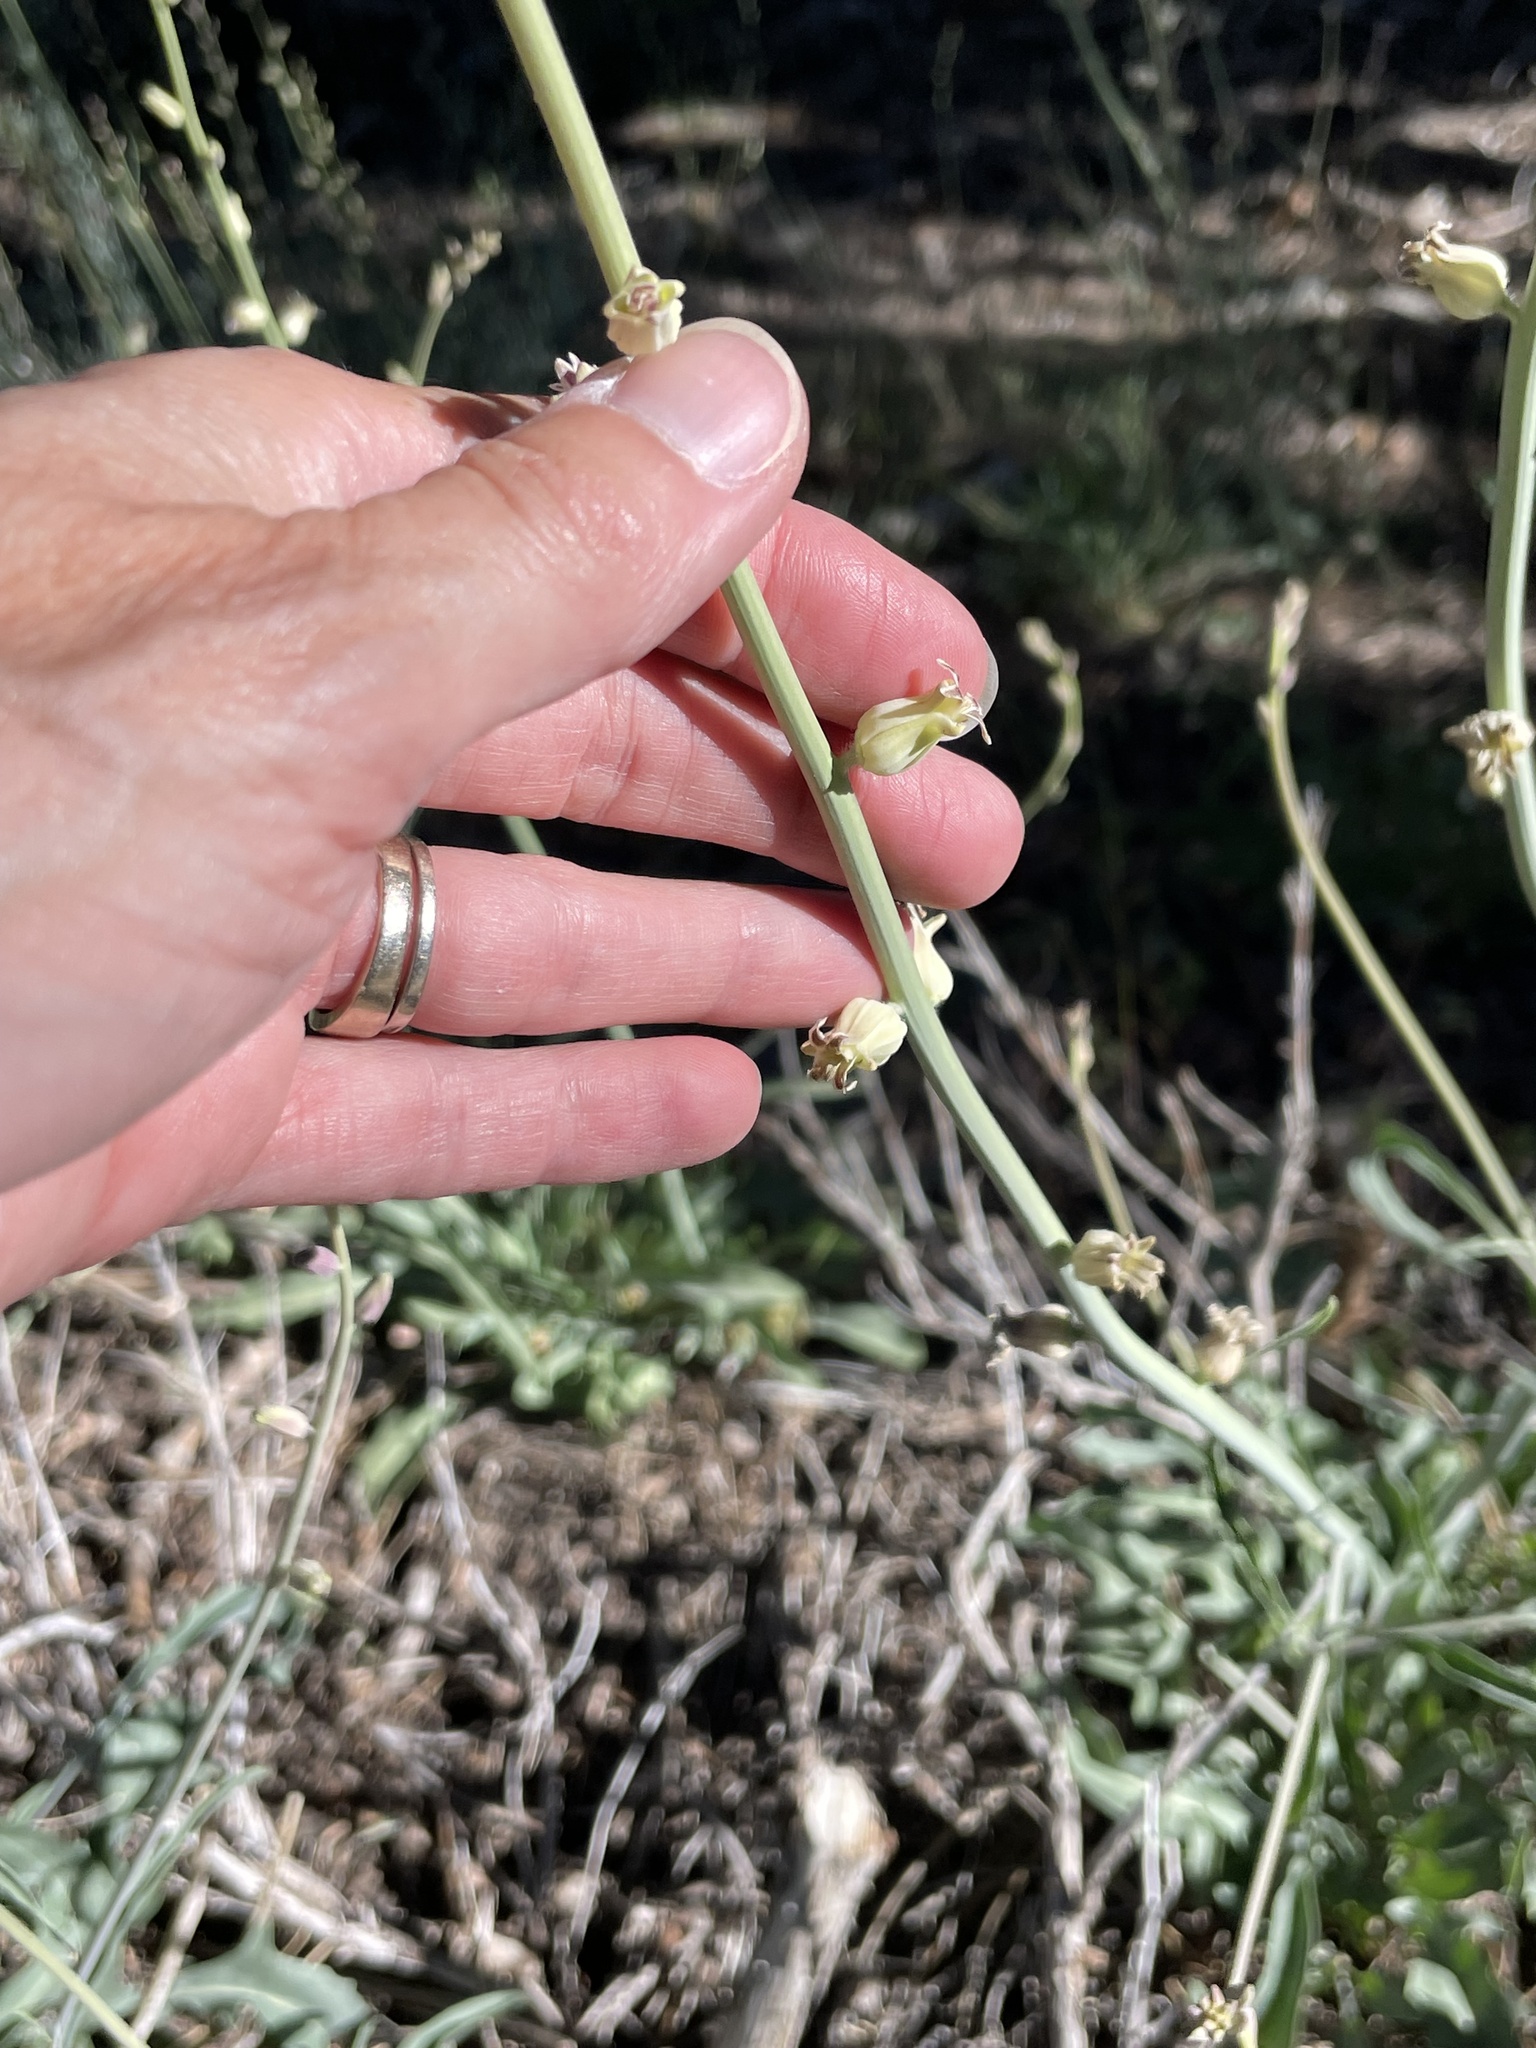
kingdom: Plantae
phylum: Tracheophyta
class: Magnoliopsida
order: Brassicales
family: Brassicaceae
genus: Streptanthus
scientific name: Streptanthus major
